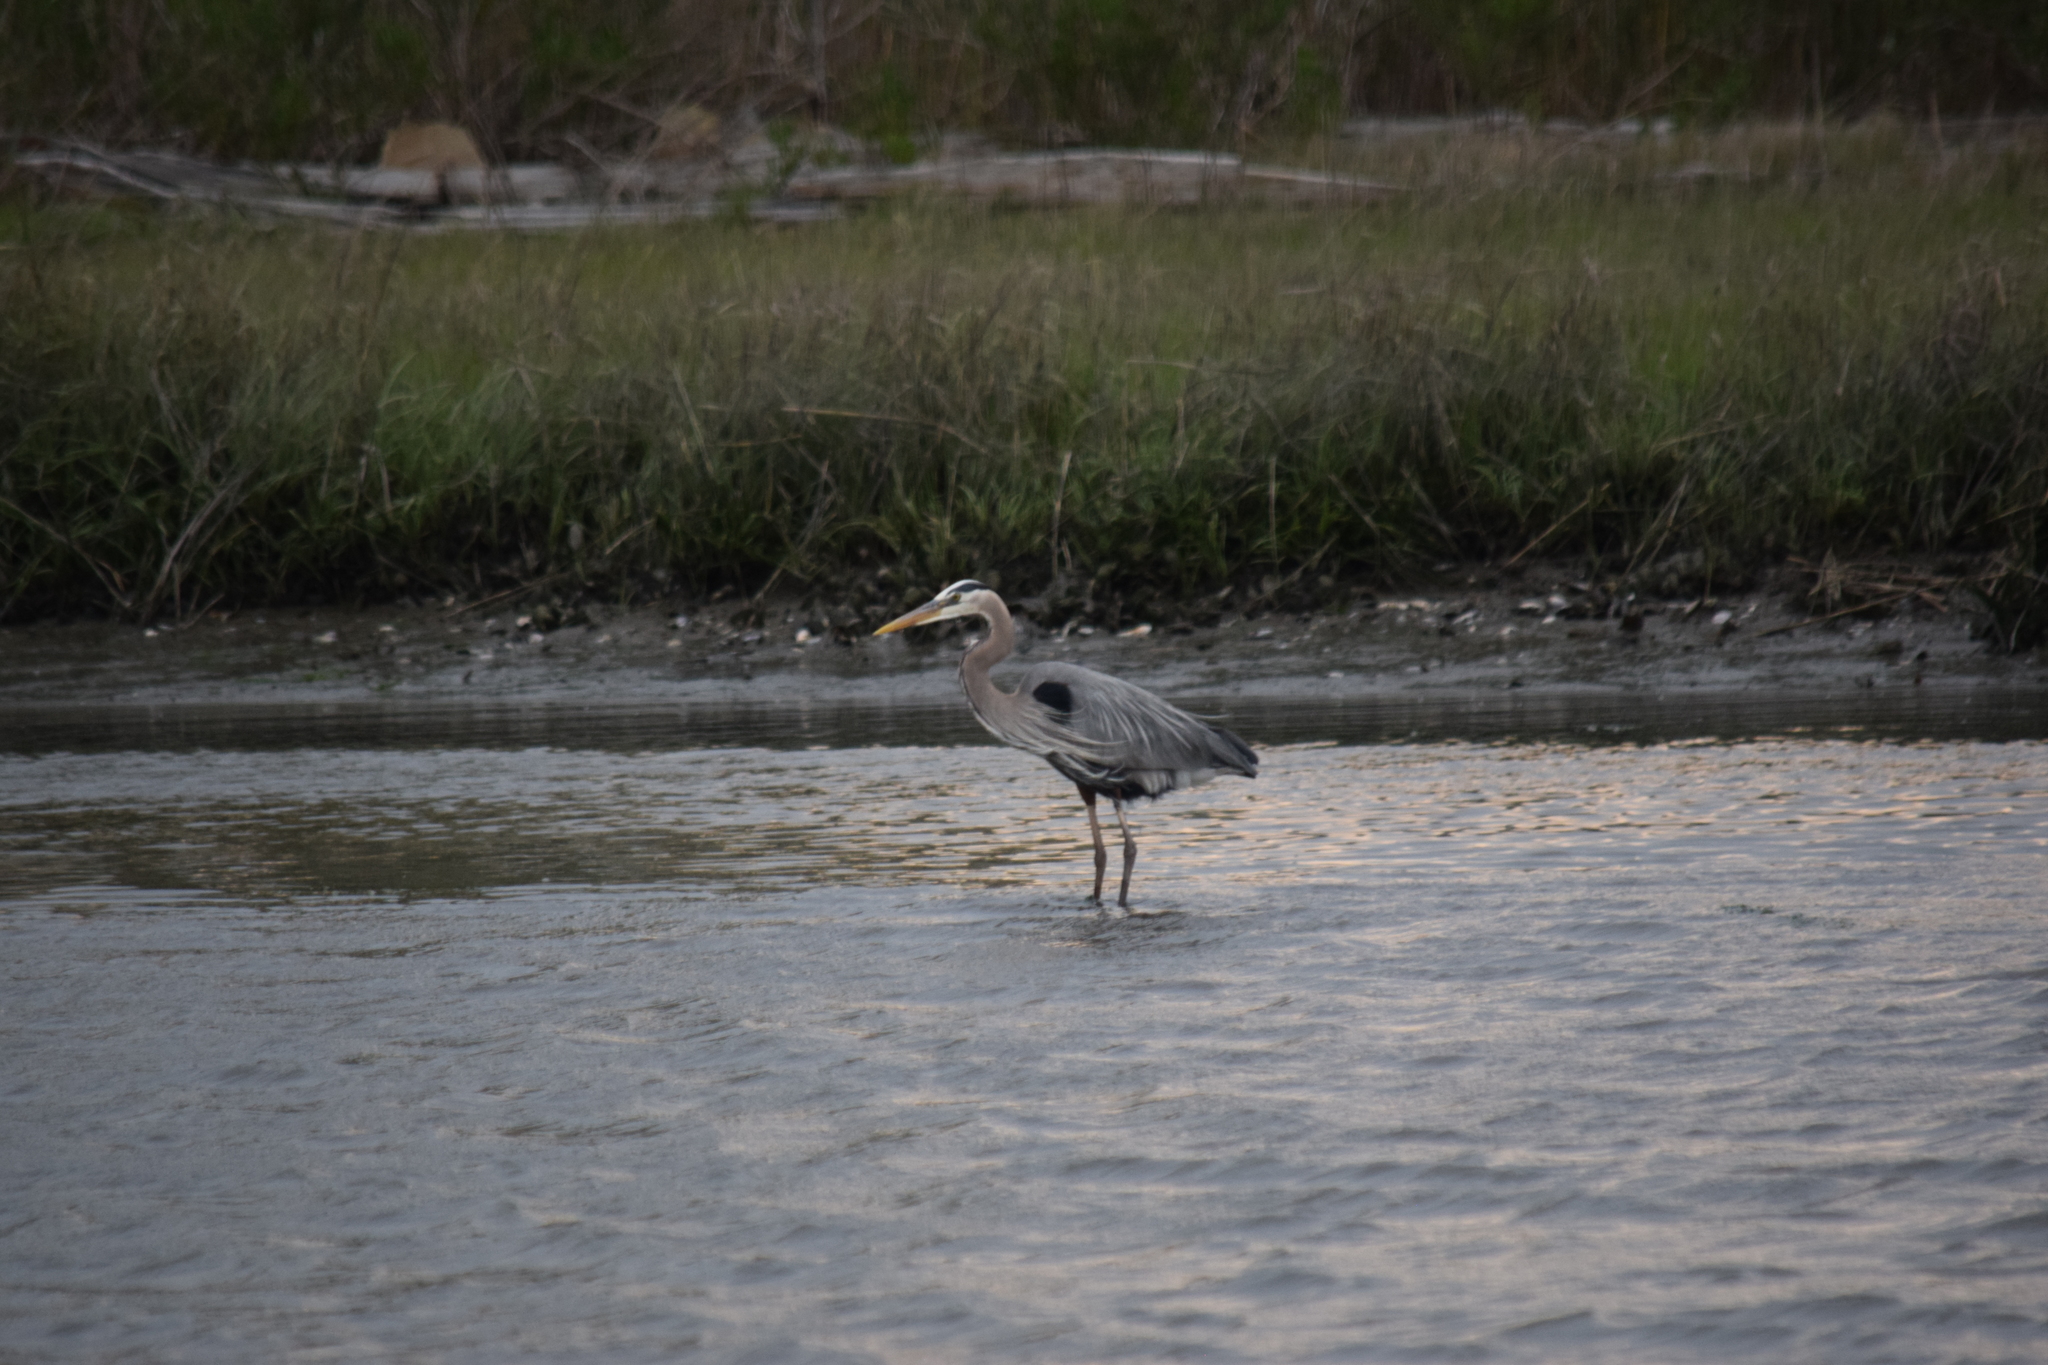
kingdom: Animalia
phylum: Chordata
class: Aves
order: Pelecaniformes
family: Ardeidae
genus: Ardea
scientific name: Ardea herodias
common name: Great blue heron
